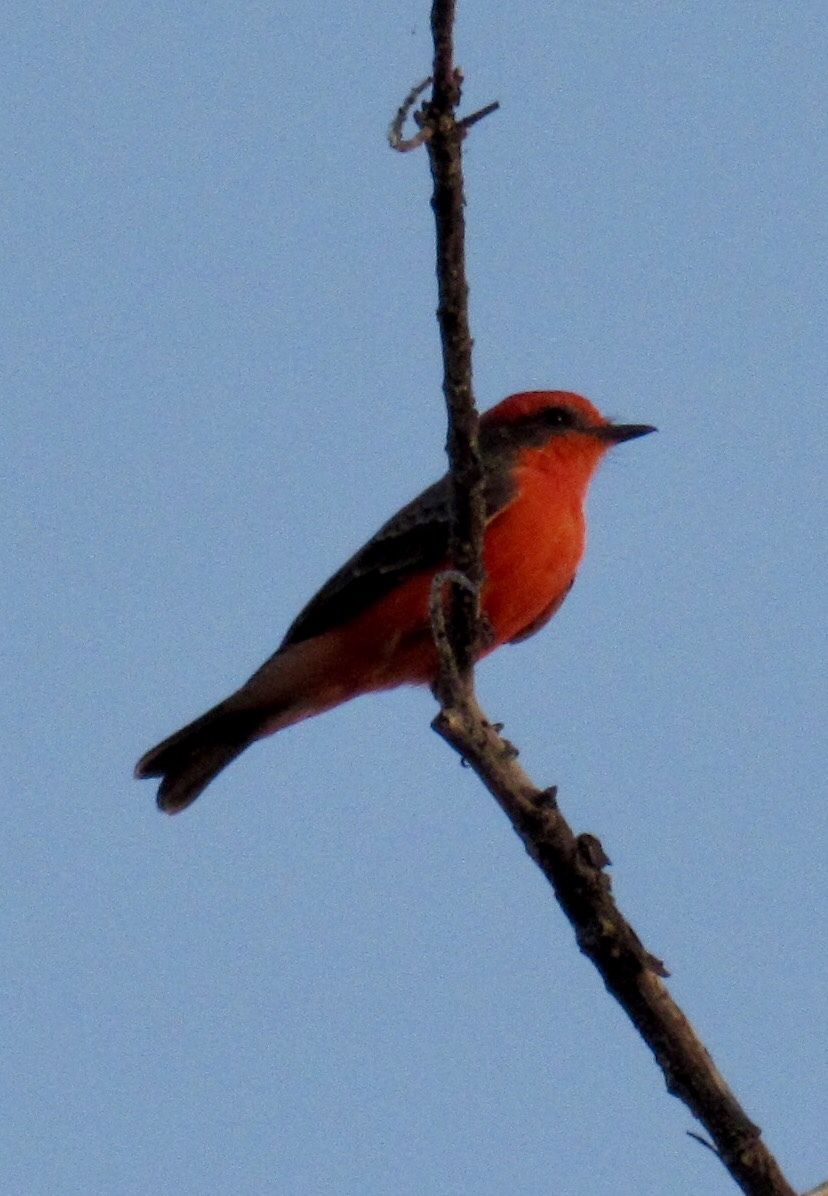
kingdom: Animalia
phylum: Chordata
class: Aves
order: Passeriformes
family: Tyrannidae
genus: Pyrocephalus
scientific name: Pyrocephalus rubinus
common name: Vermilion flycatcher
